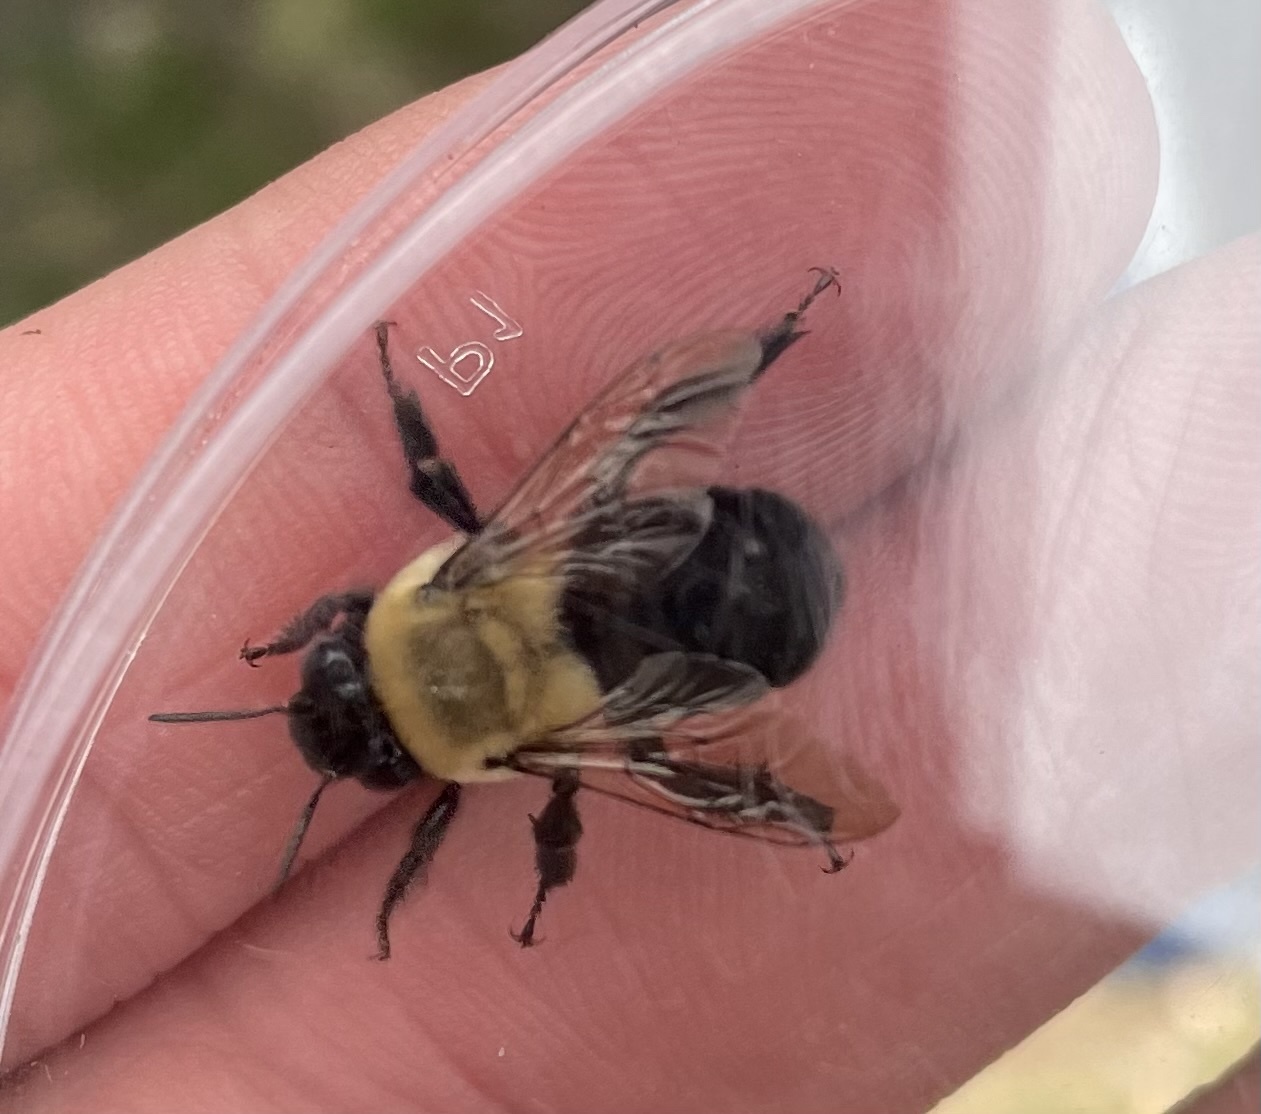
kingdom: Animalia
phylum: Arthropoda
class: Insecta
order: Hymenoptera
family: Apidae
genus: Anthophora
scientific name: Anthophora abrupta
